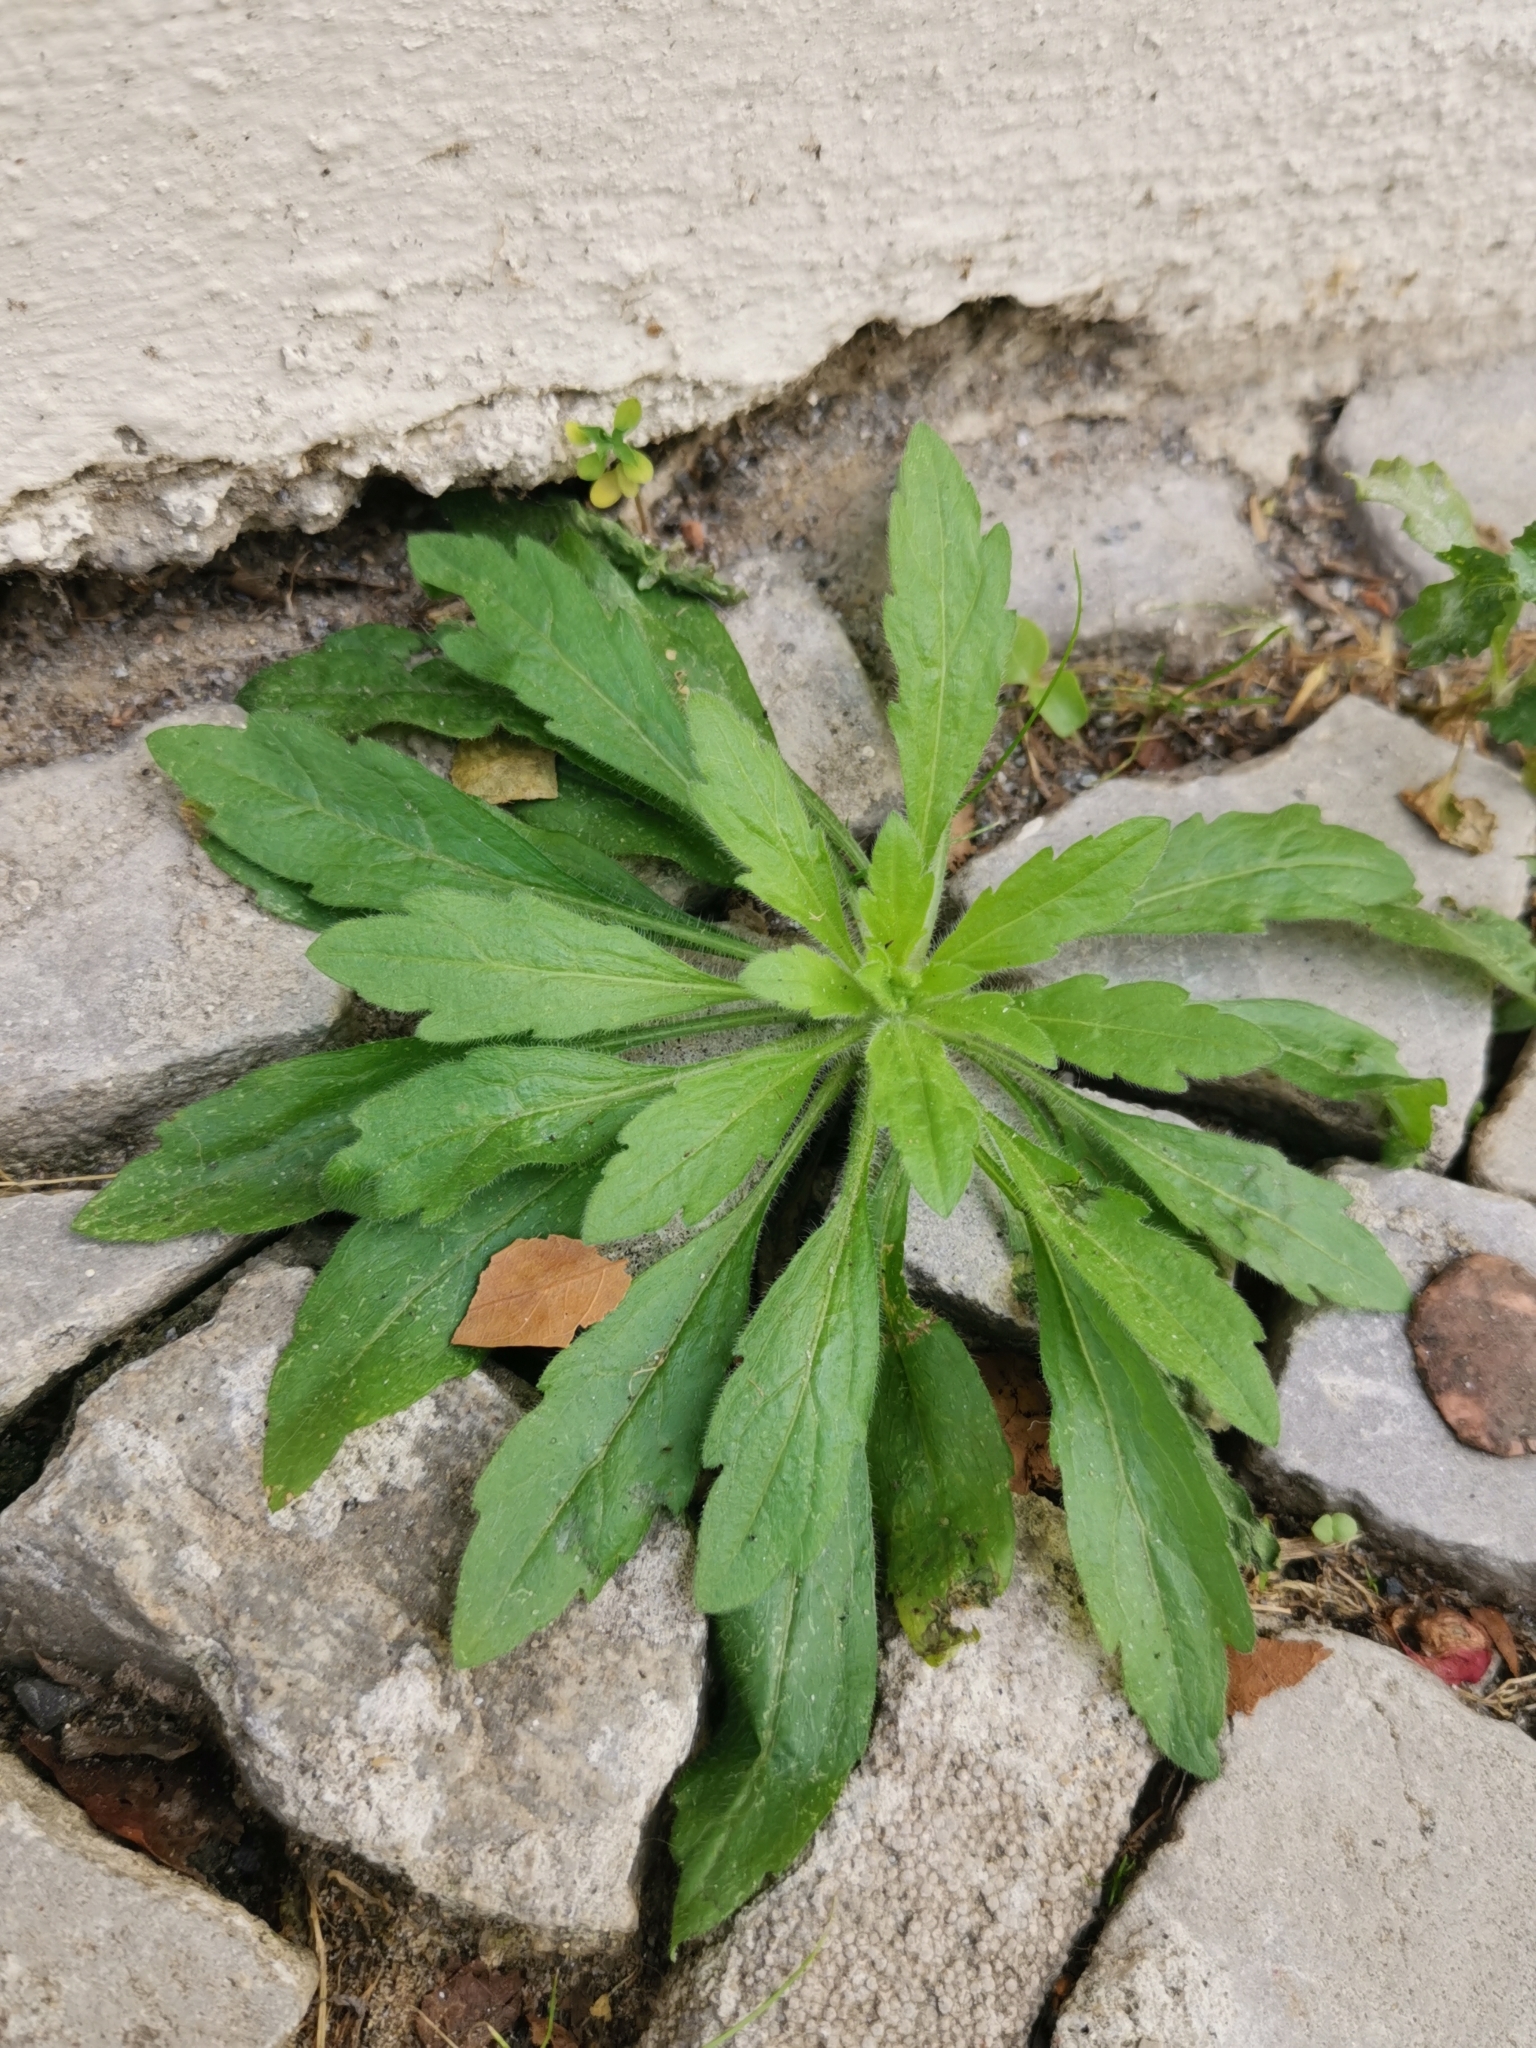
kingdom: Plantae
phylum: Tracheophyta
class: Magnoliopsida
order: Asterales
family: Asteraceae
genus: Erigeron
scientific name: Erigeron canadensis
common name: Canadian fleabane
